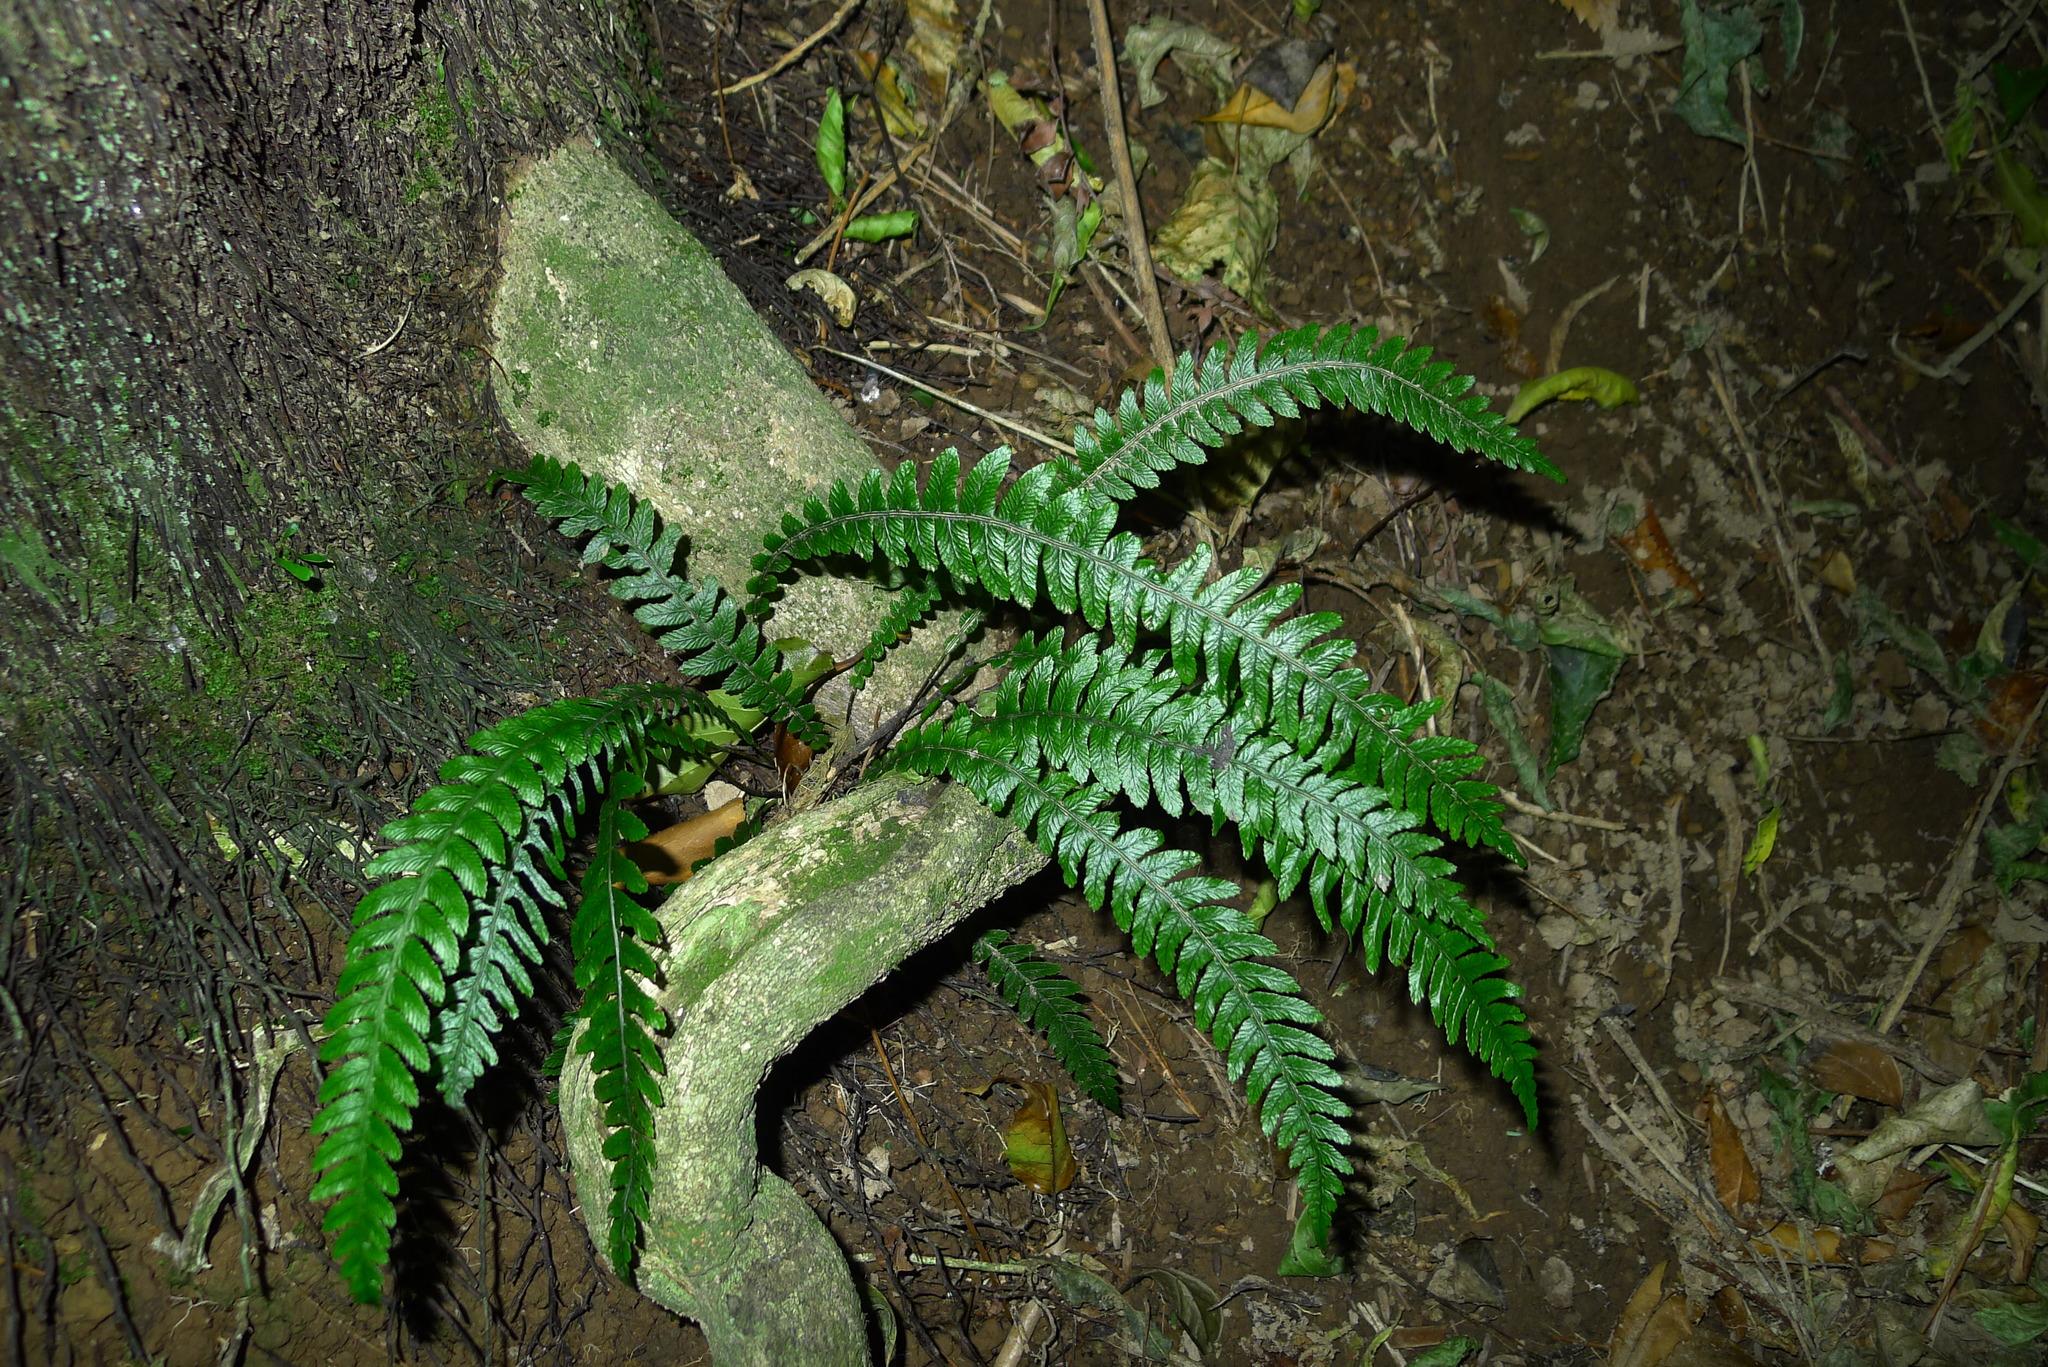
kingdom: Plantae
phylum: Tracheophyta
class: Polypodiopsida
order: Polypodiales
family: Blechnaceae
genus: Austroblechnum
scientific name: Austroblechnum lanceolatum
